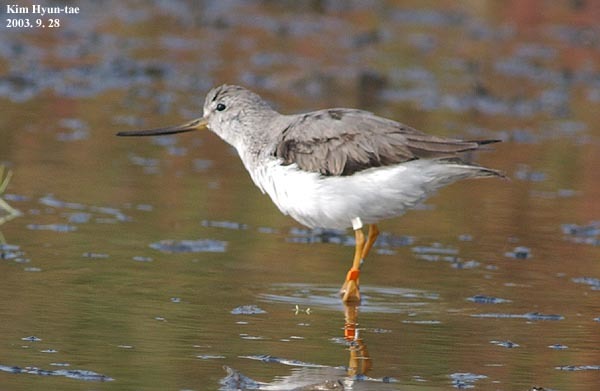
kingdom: Animalia
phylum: Chordata
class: Aves
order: Charadriiformes
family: Scolopacidae
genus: Xenus
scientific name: Xenus cinereus
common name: Terek sandpiper
